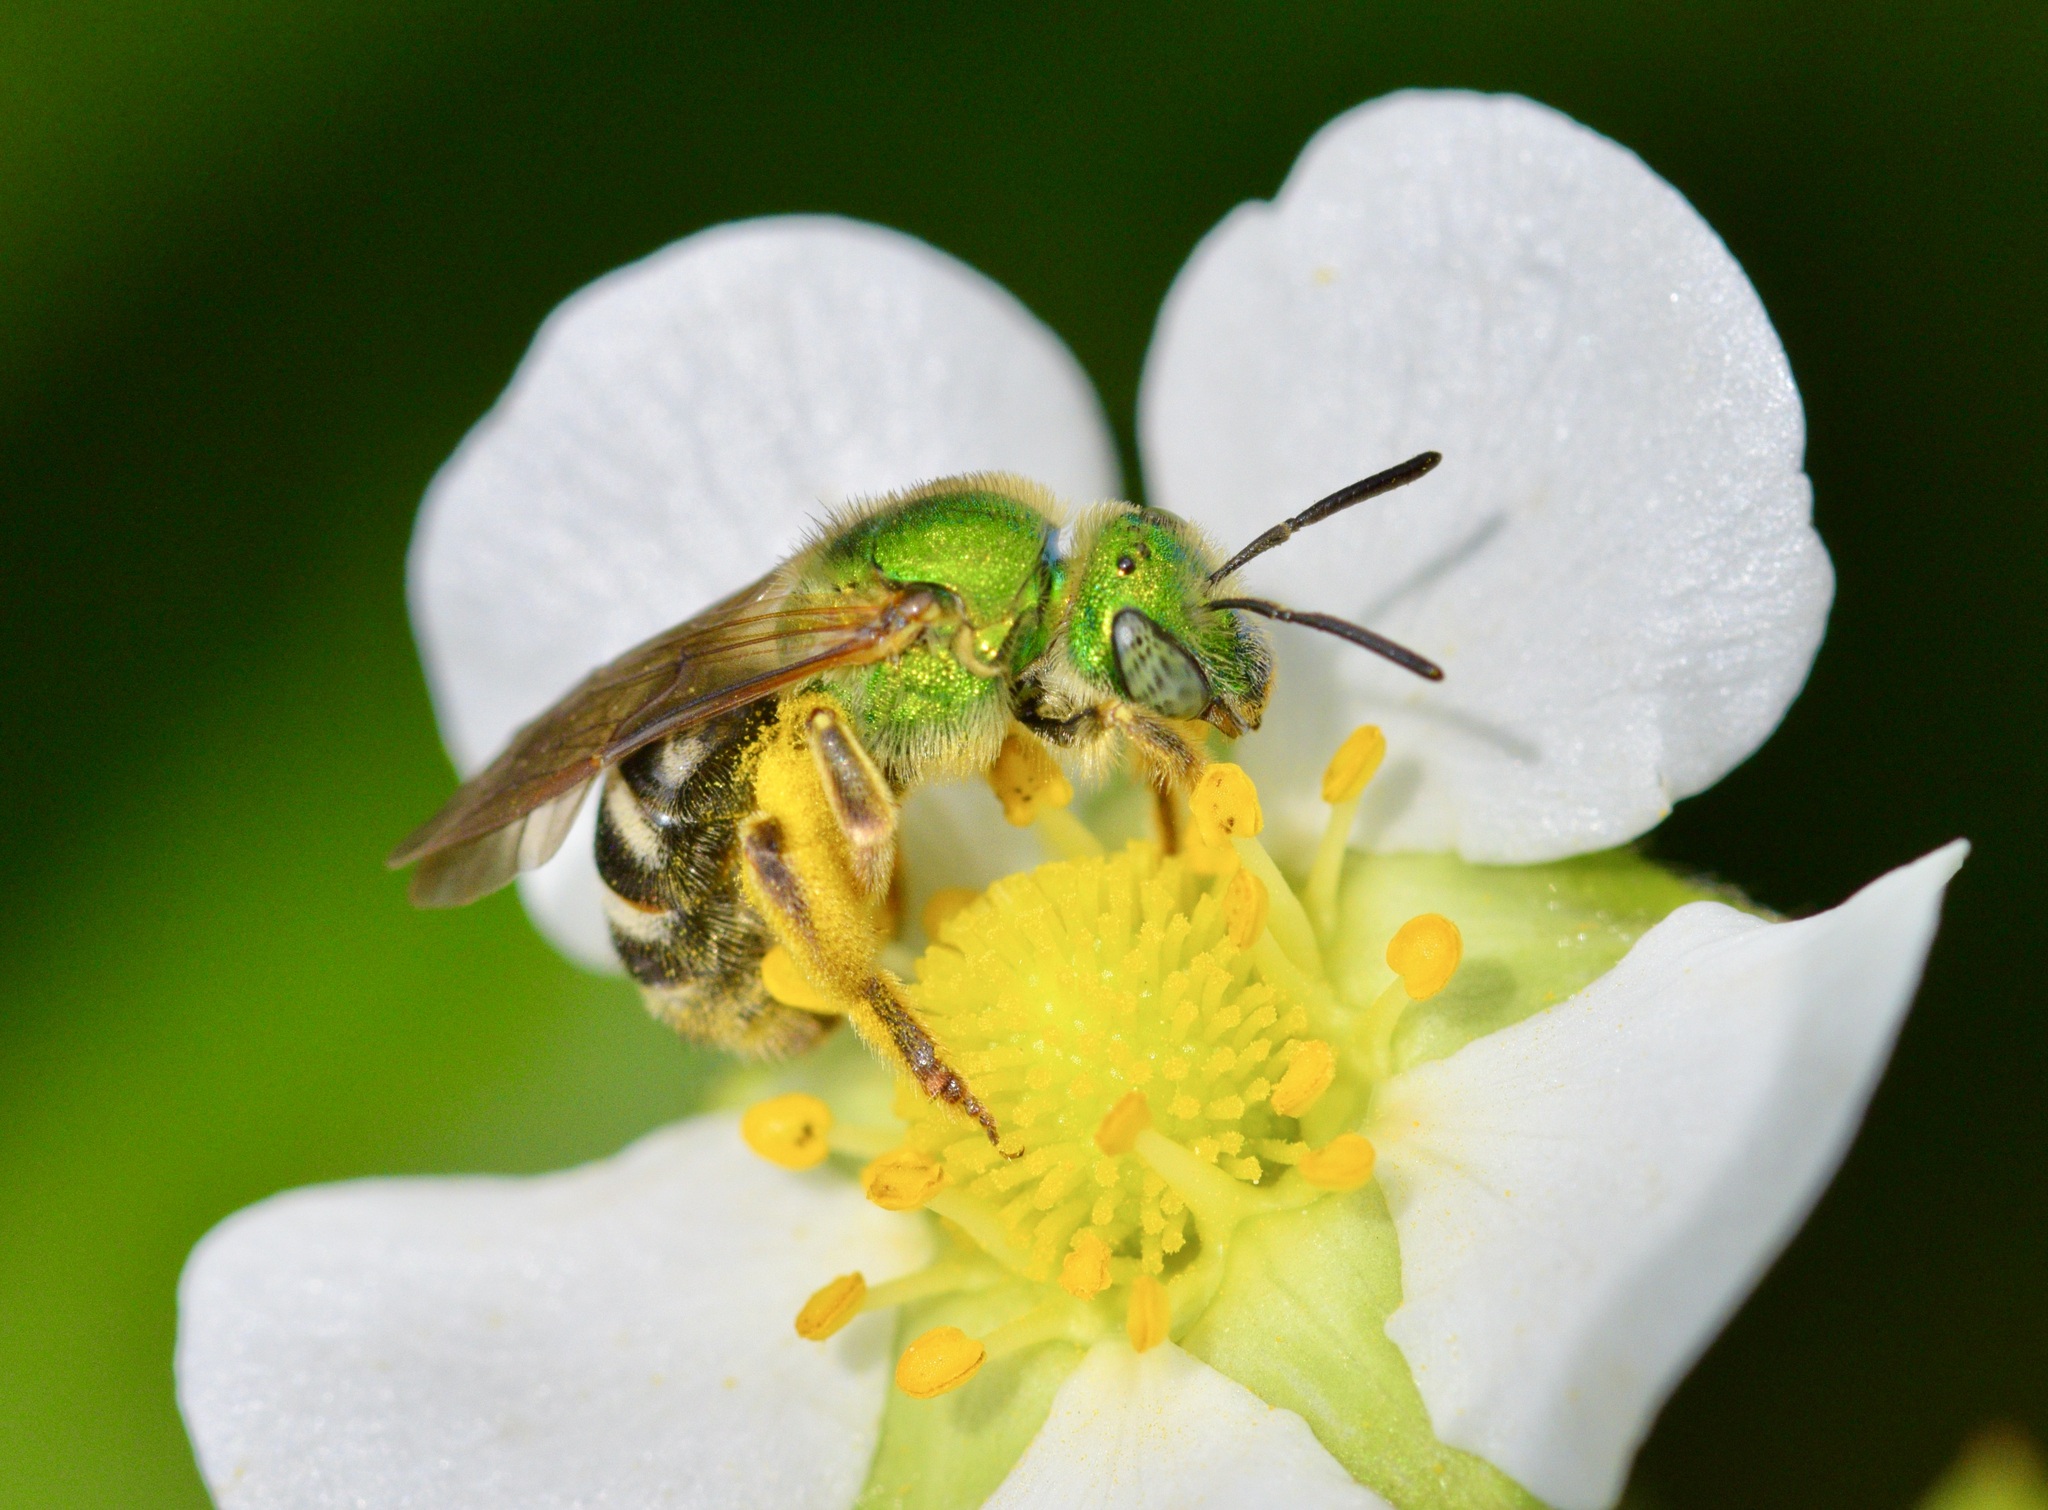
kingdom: Animalia
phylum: Arthropoda
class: Insecta
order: Hymenoptera
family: Halictidae
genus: Agapostemon
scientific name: Agapostemon virescens
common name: Bicolored striped sweat bee
